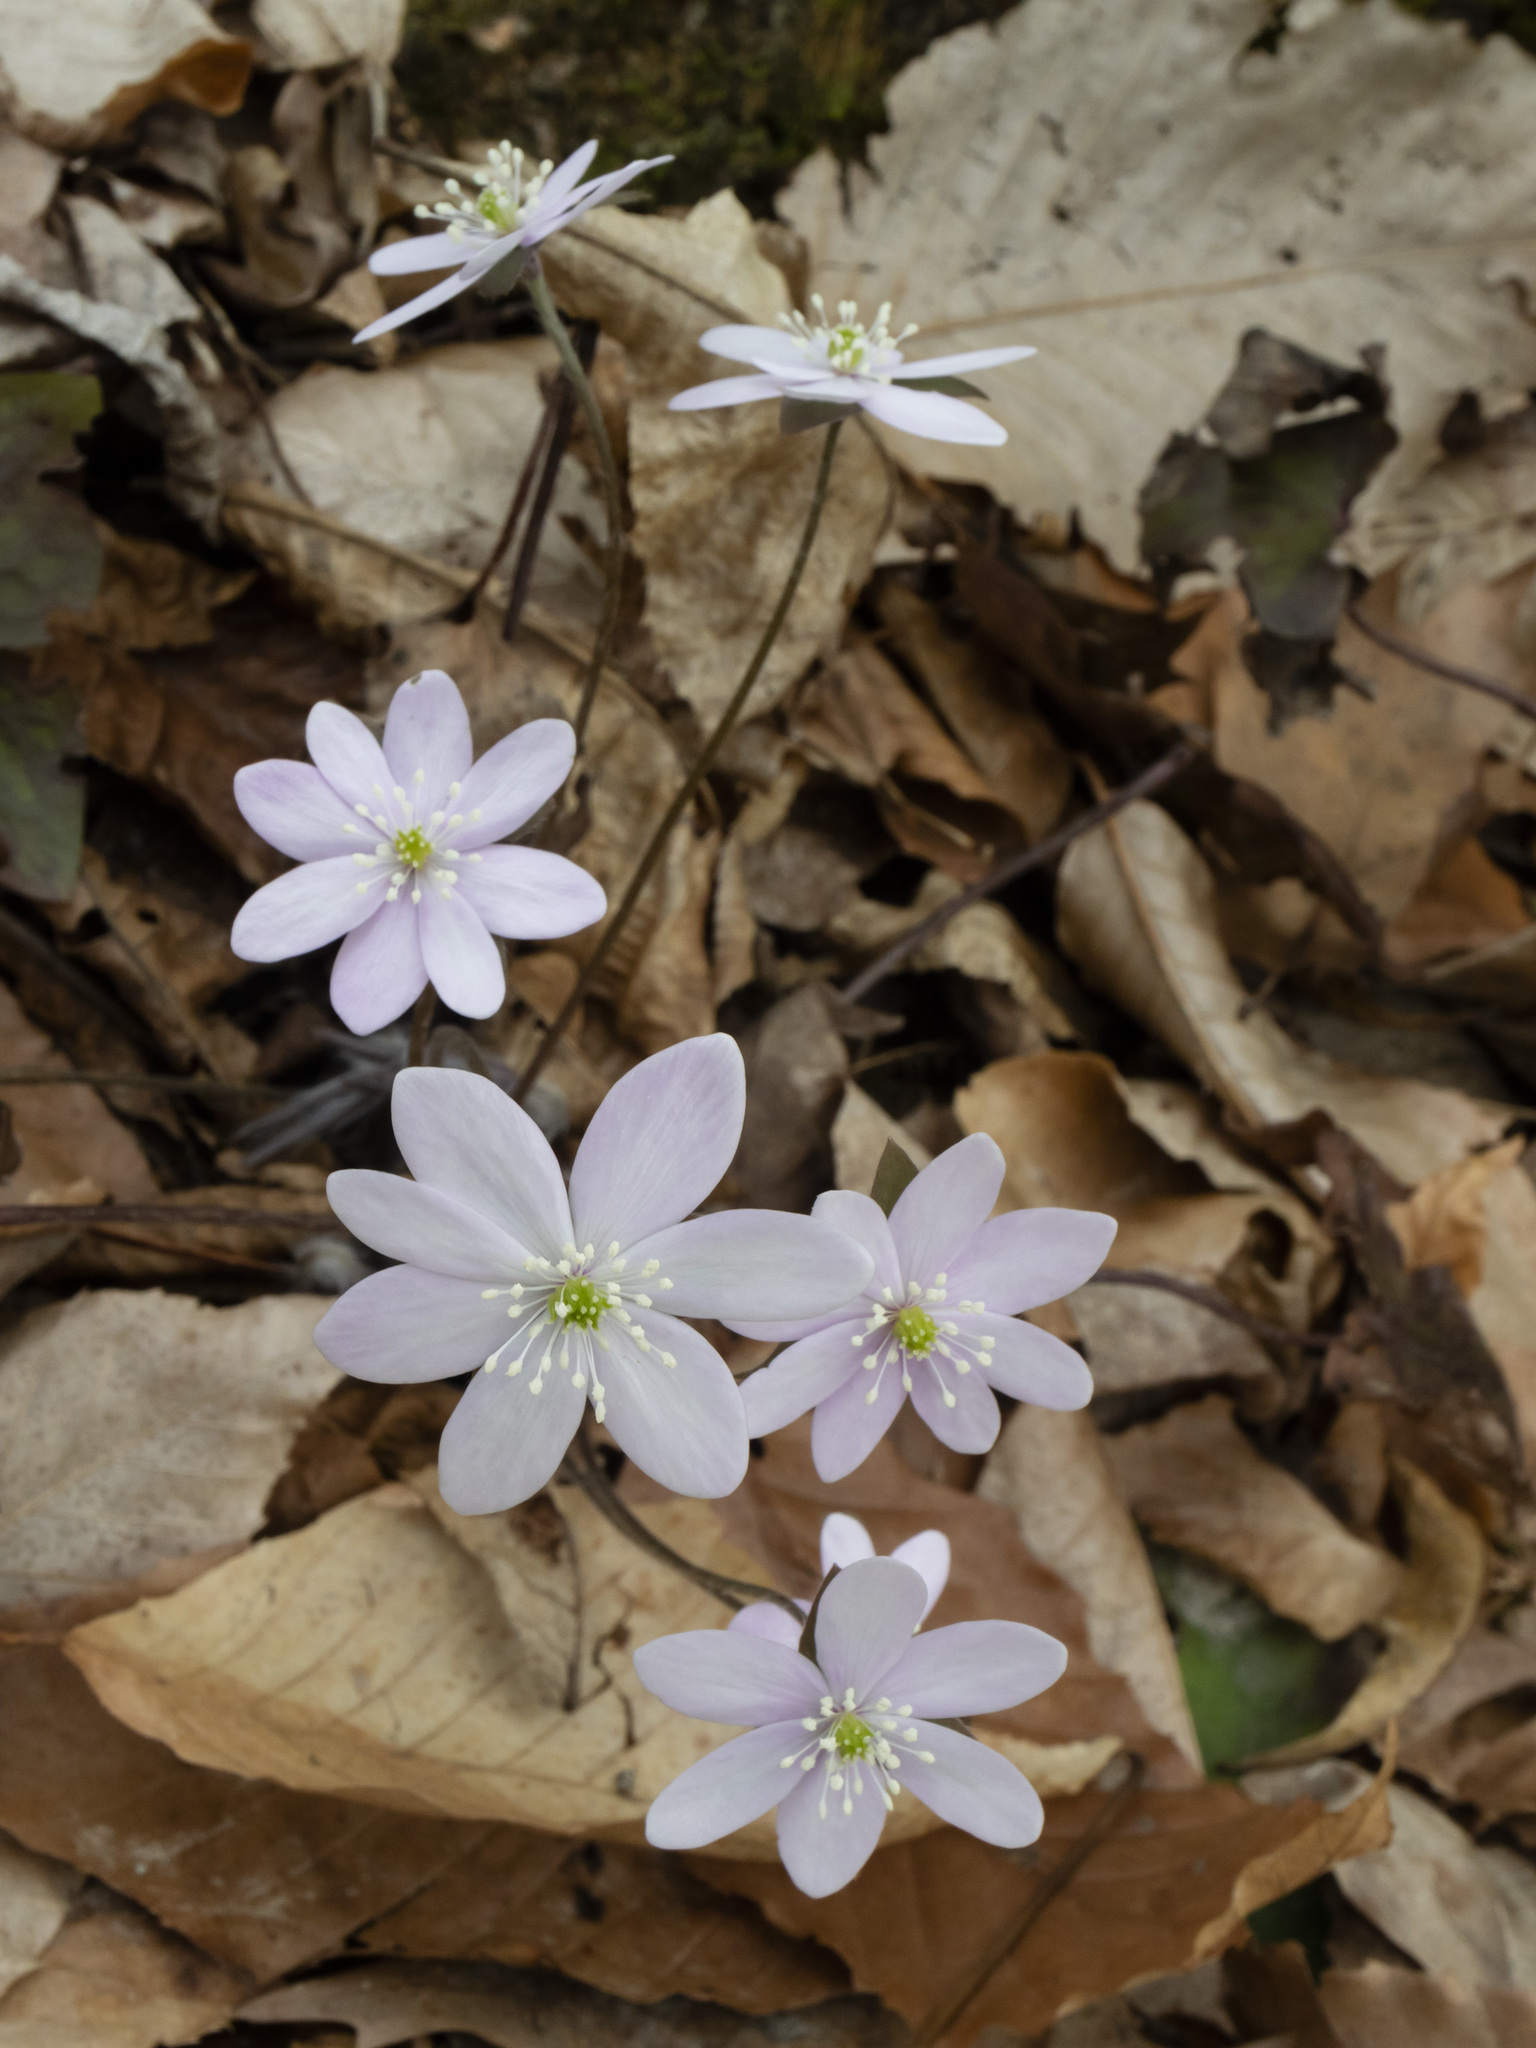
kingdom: Plantae
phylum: Tracheophyta
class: Magnoliopsida
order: Ranunculales
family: Ranunculaceae
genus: Hepatica
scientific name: Hepatica acutiloba
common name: Sharp-lobed hepatica
